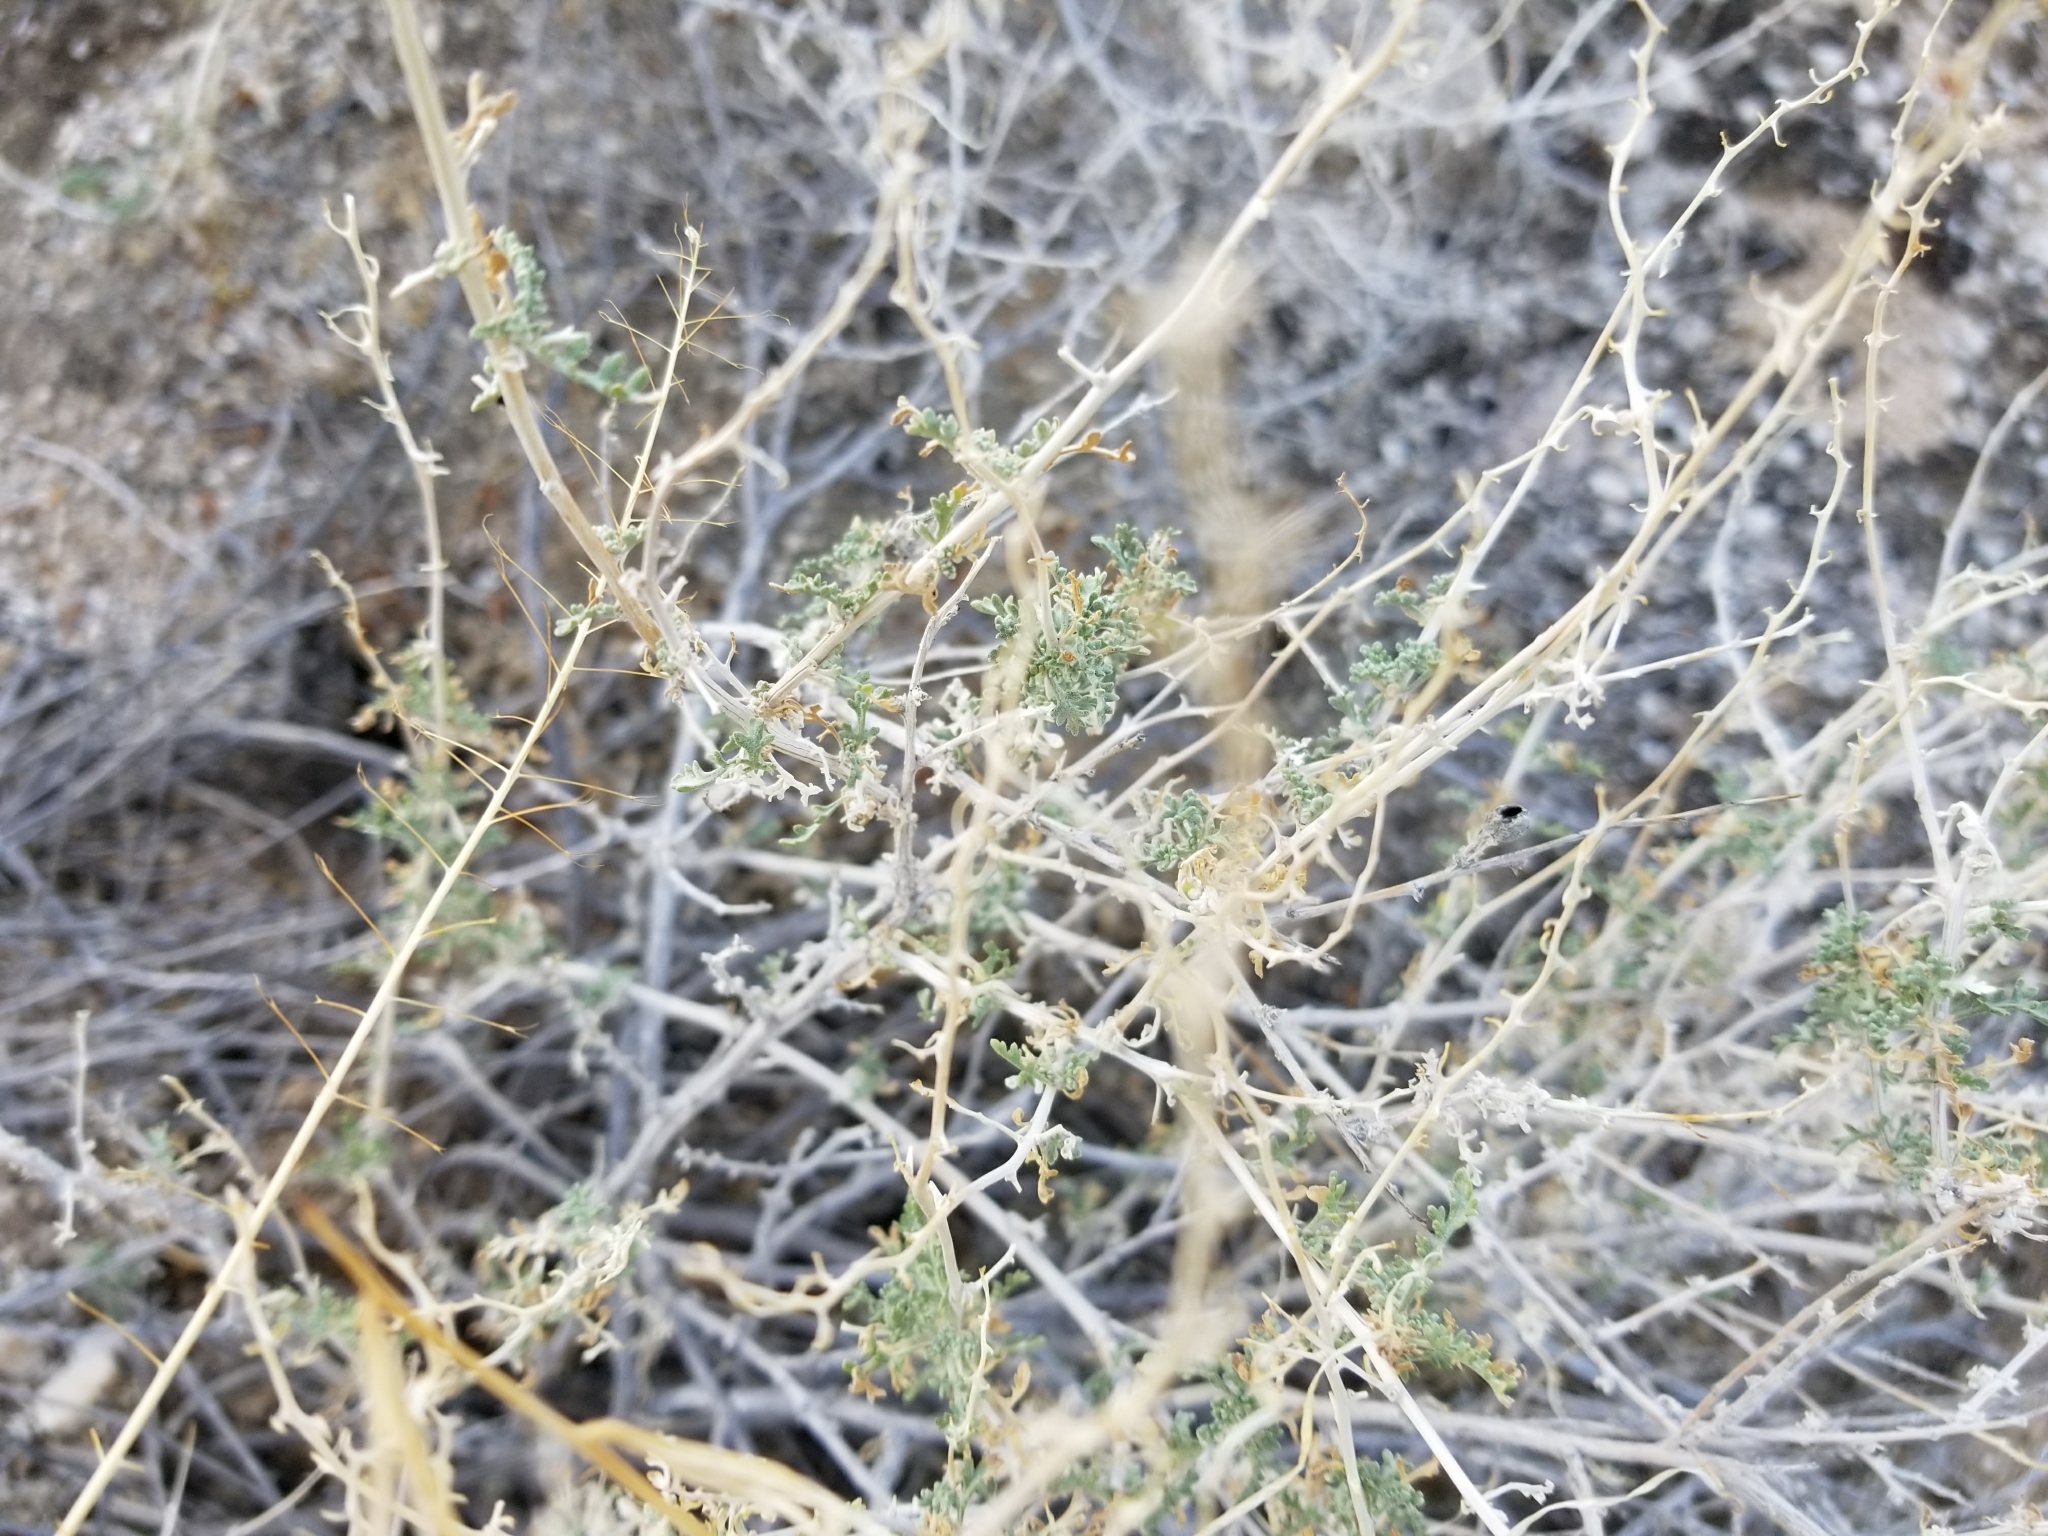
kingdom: Plantae
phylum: Tracheophyta
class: Magnoliopsida
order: Asterales
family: Asteraceae
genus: Ambrosia
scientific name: Ambrosia dumosa
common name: Bur-sage
